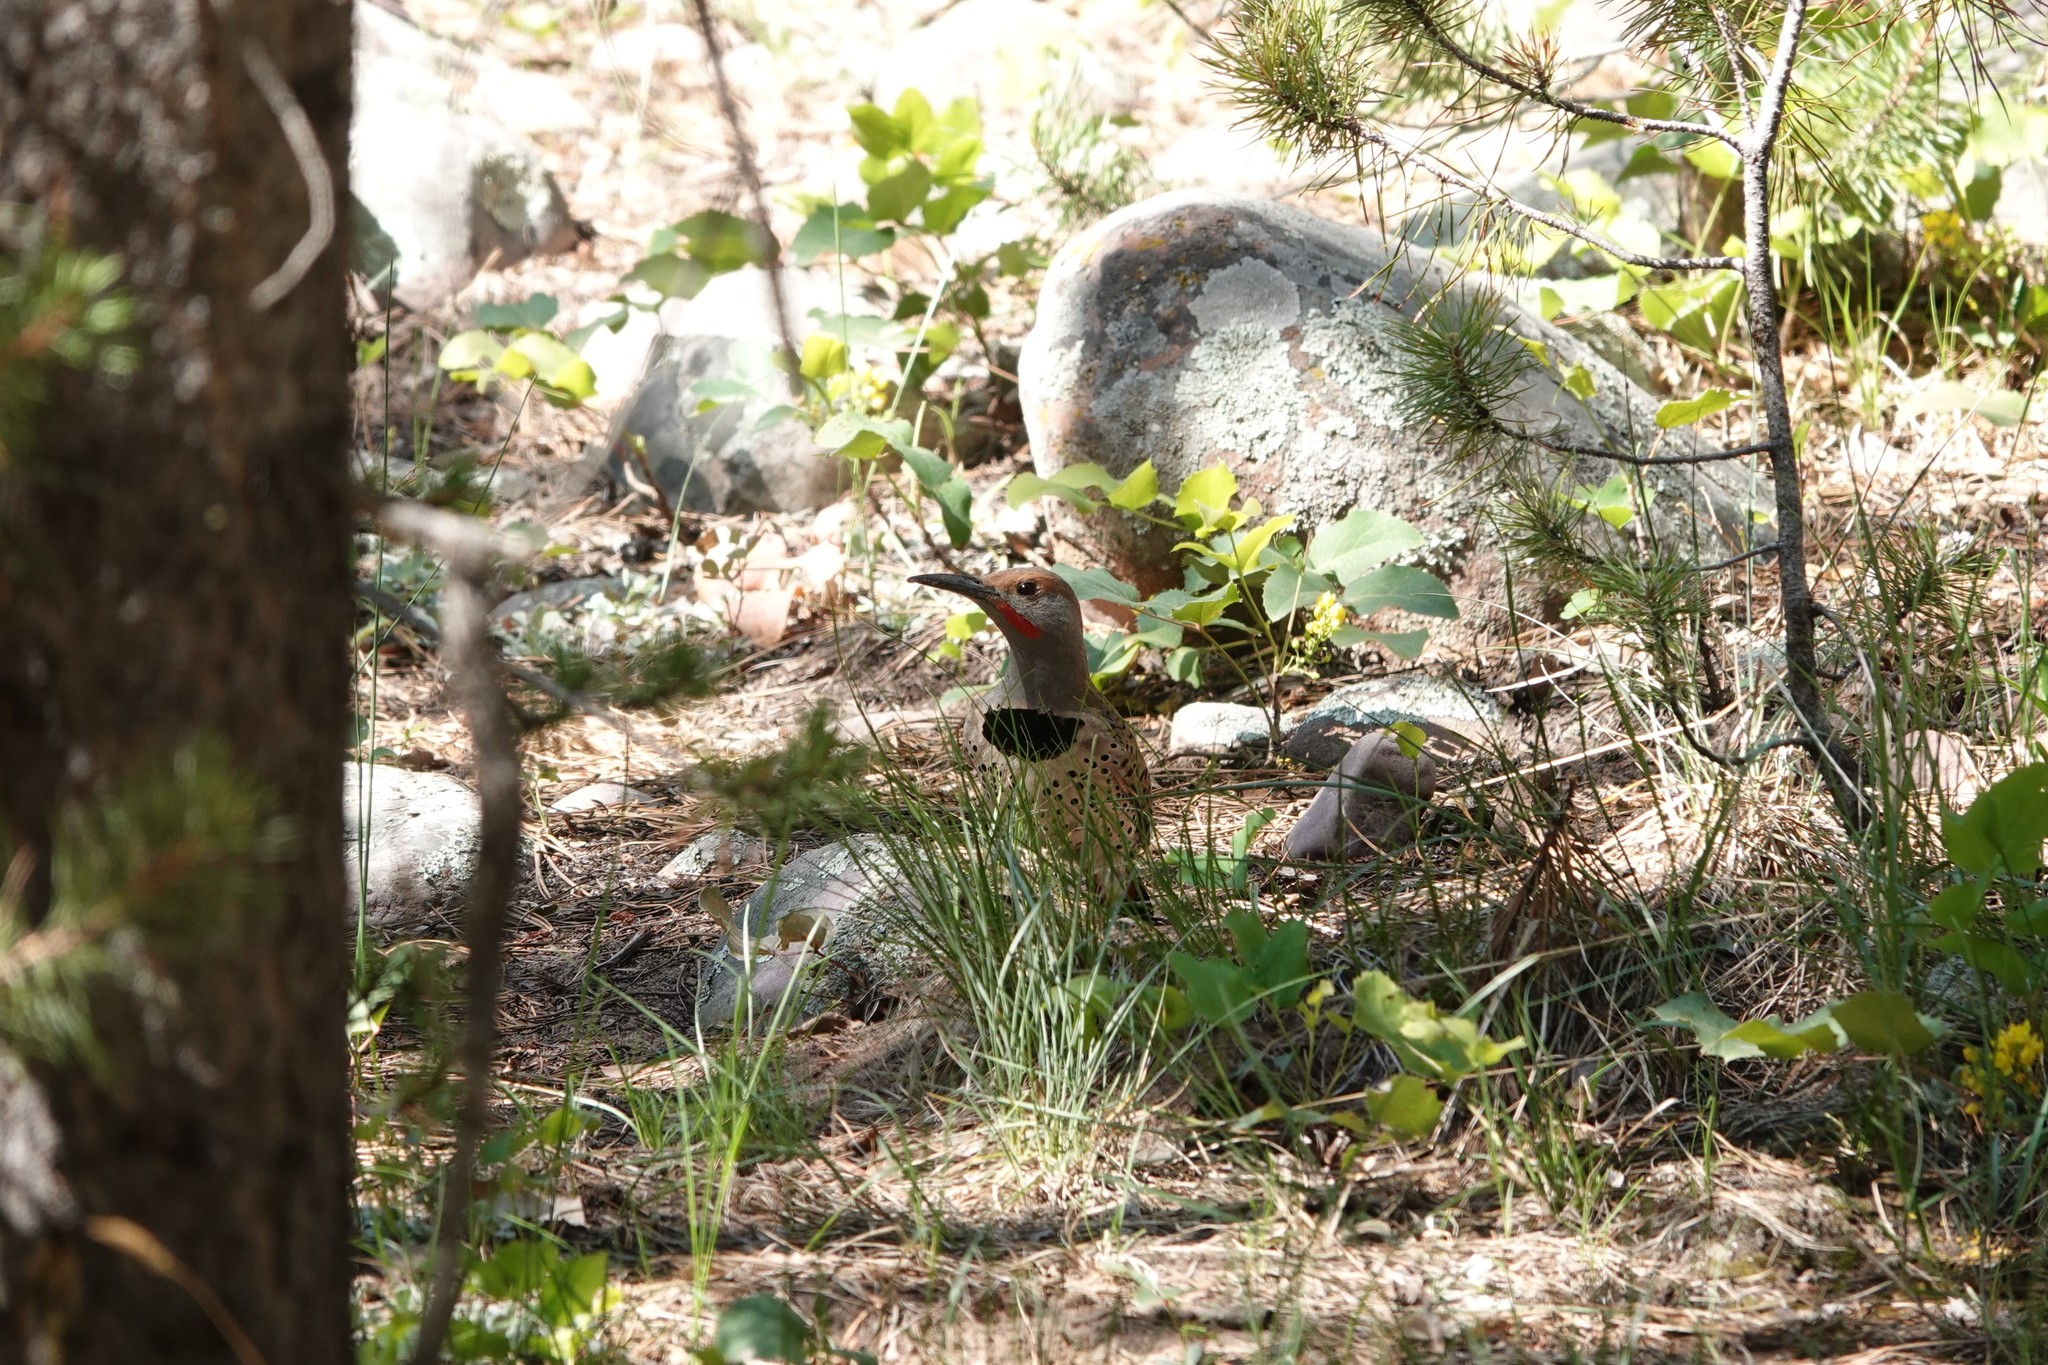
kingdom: Animalia
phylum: Chordata
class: Aves
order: Piciformes
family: Picidae
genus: Colaptes
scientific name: Colaptes auratus
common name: Northern flicker
